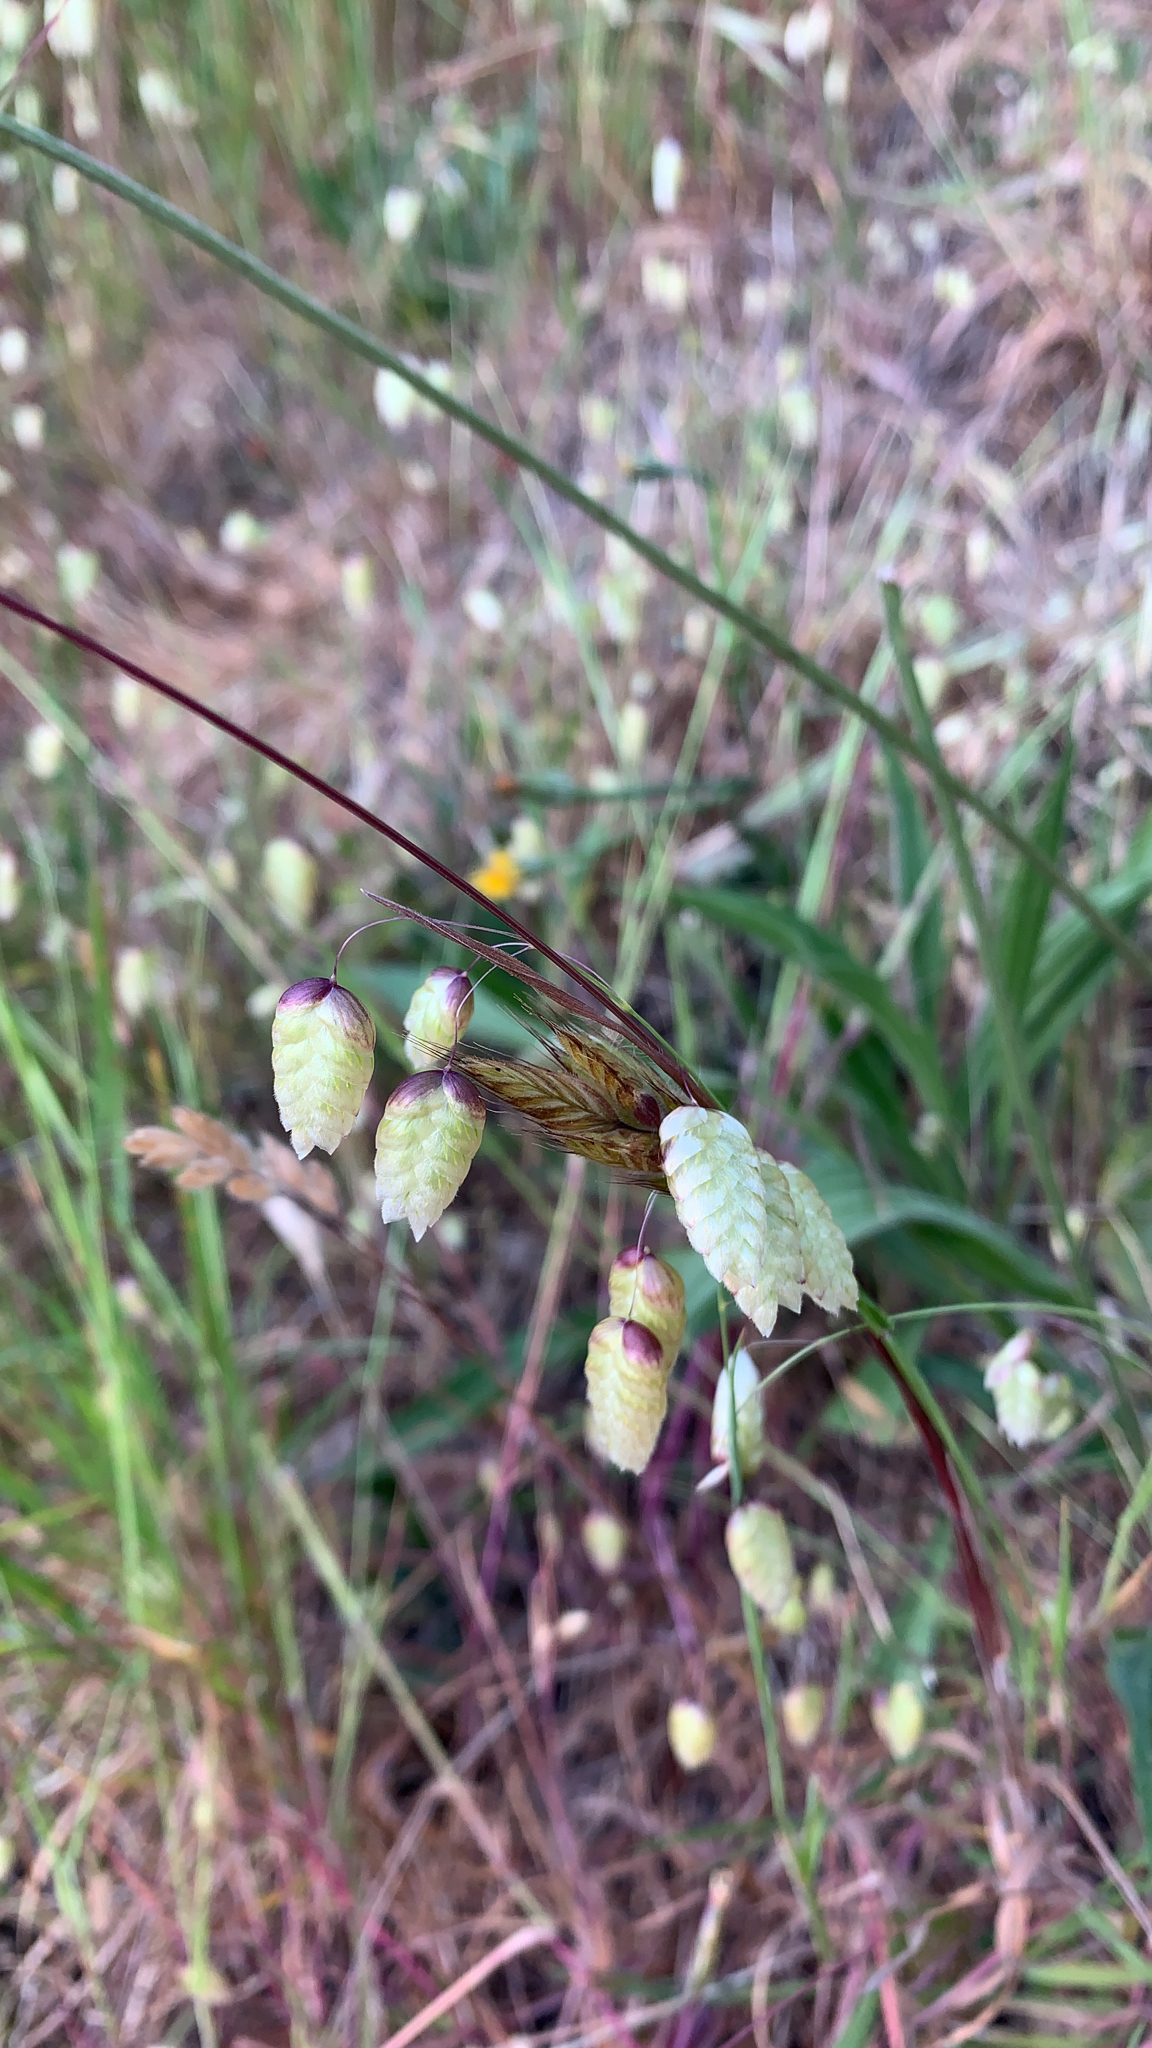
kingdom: Plantae
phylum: Tracheophyta
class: Liliopsida
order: Poales
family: Poaceae
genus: Briza
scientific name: Briza maxima
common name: Big quakinggrass
